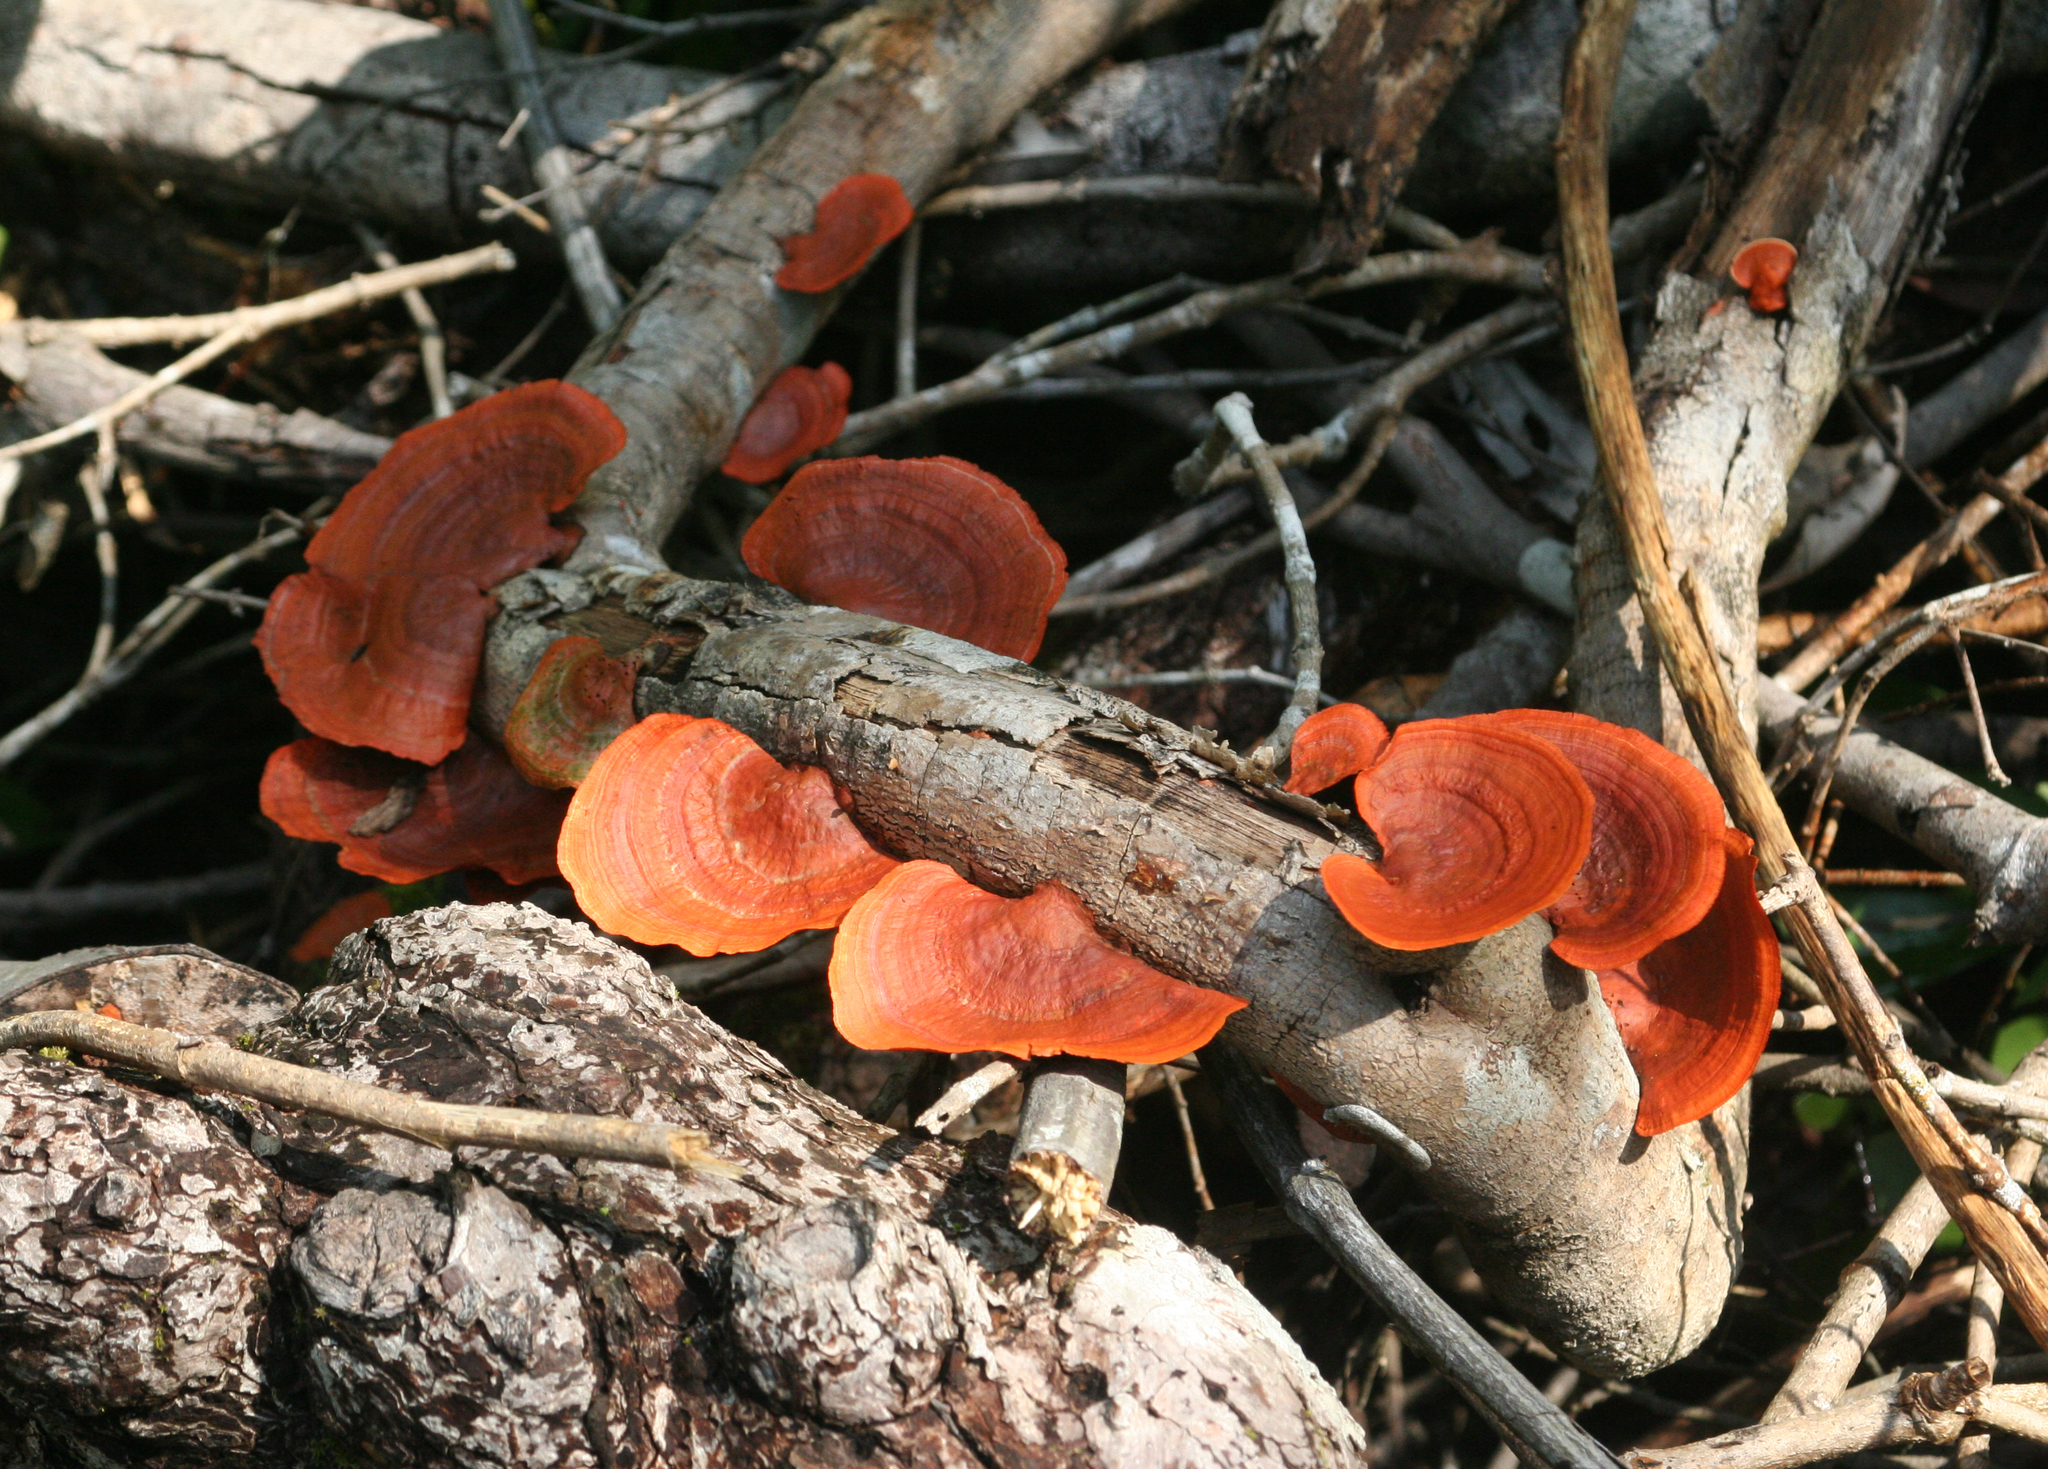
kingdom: Fungi
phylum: Basidiomycota
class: Agaricomycetes
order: Polyporales
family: Polyporaceae
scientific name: Polyporaceae
